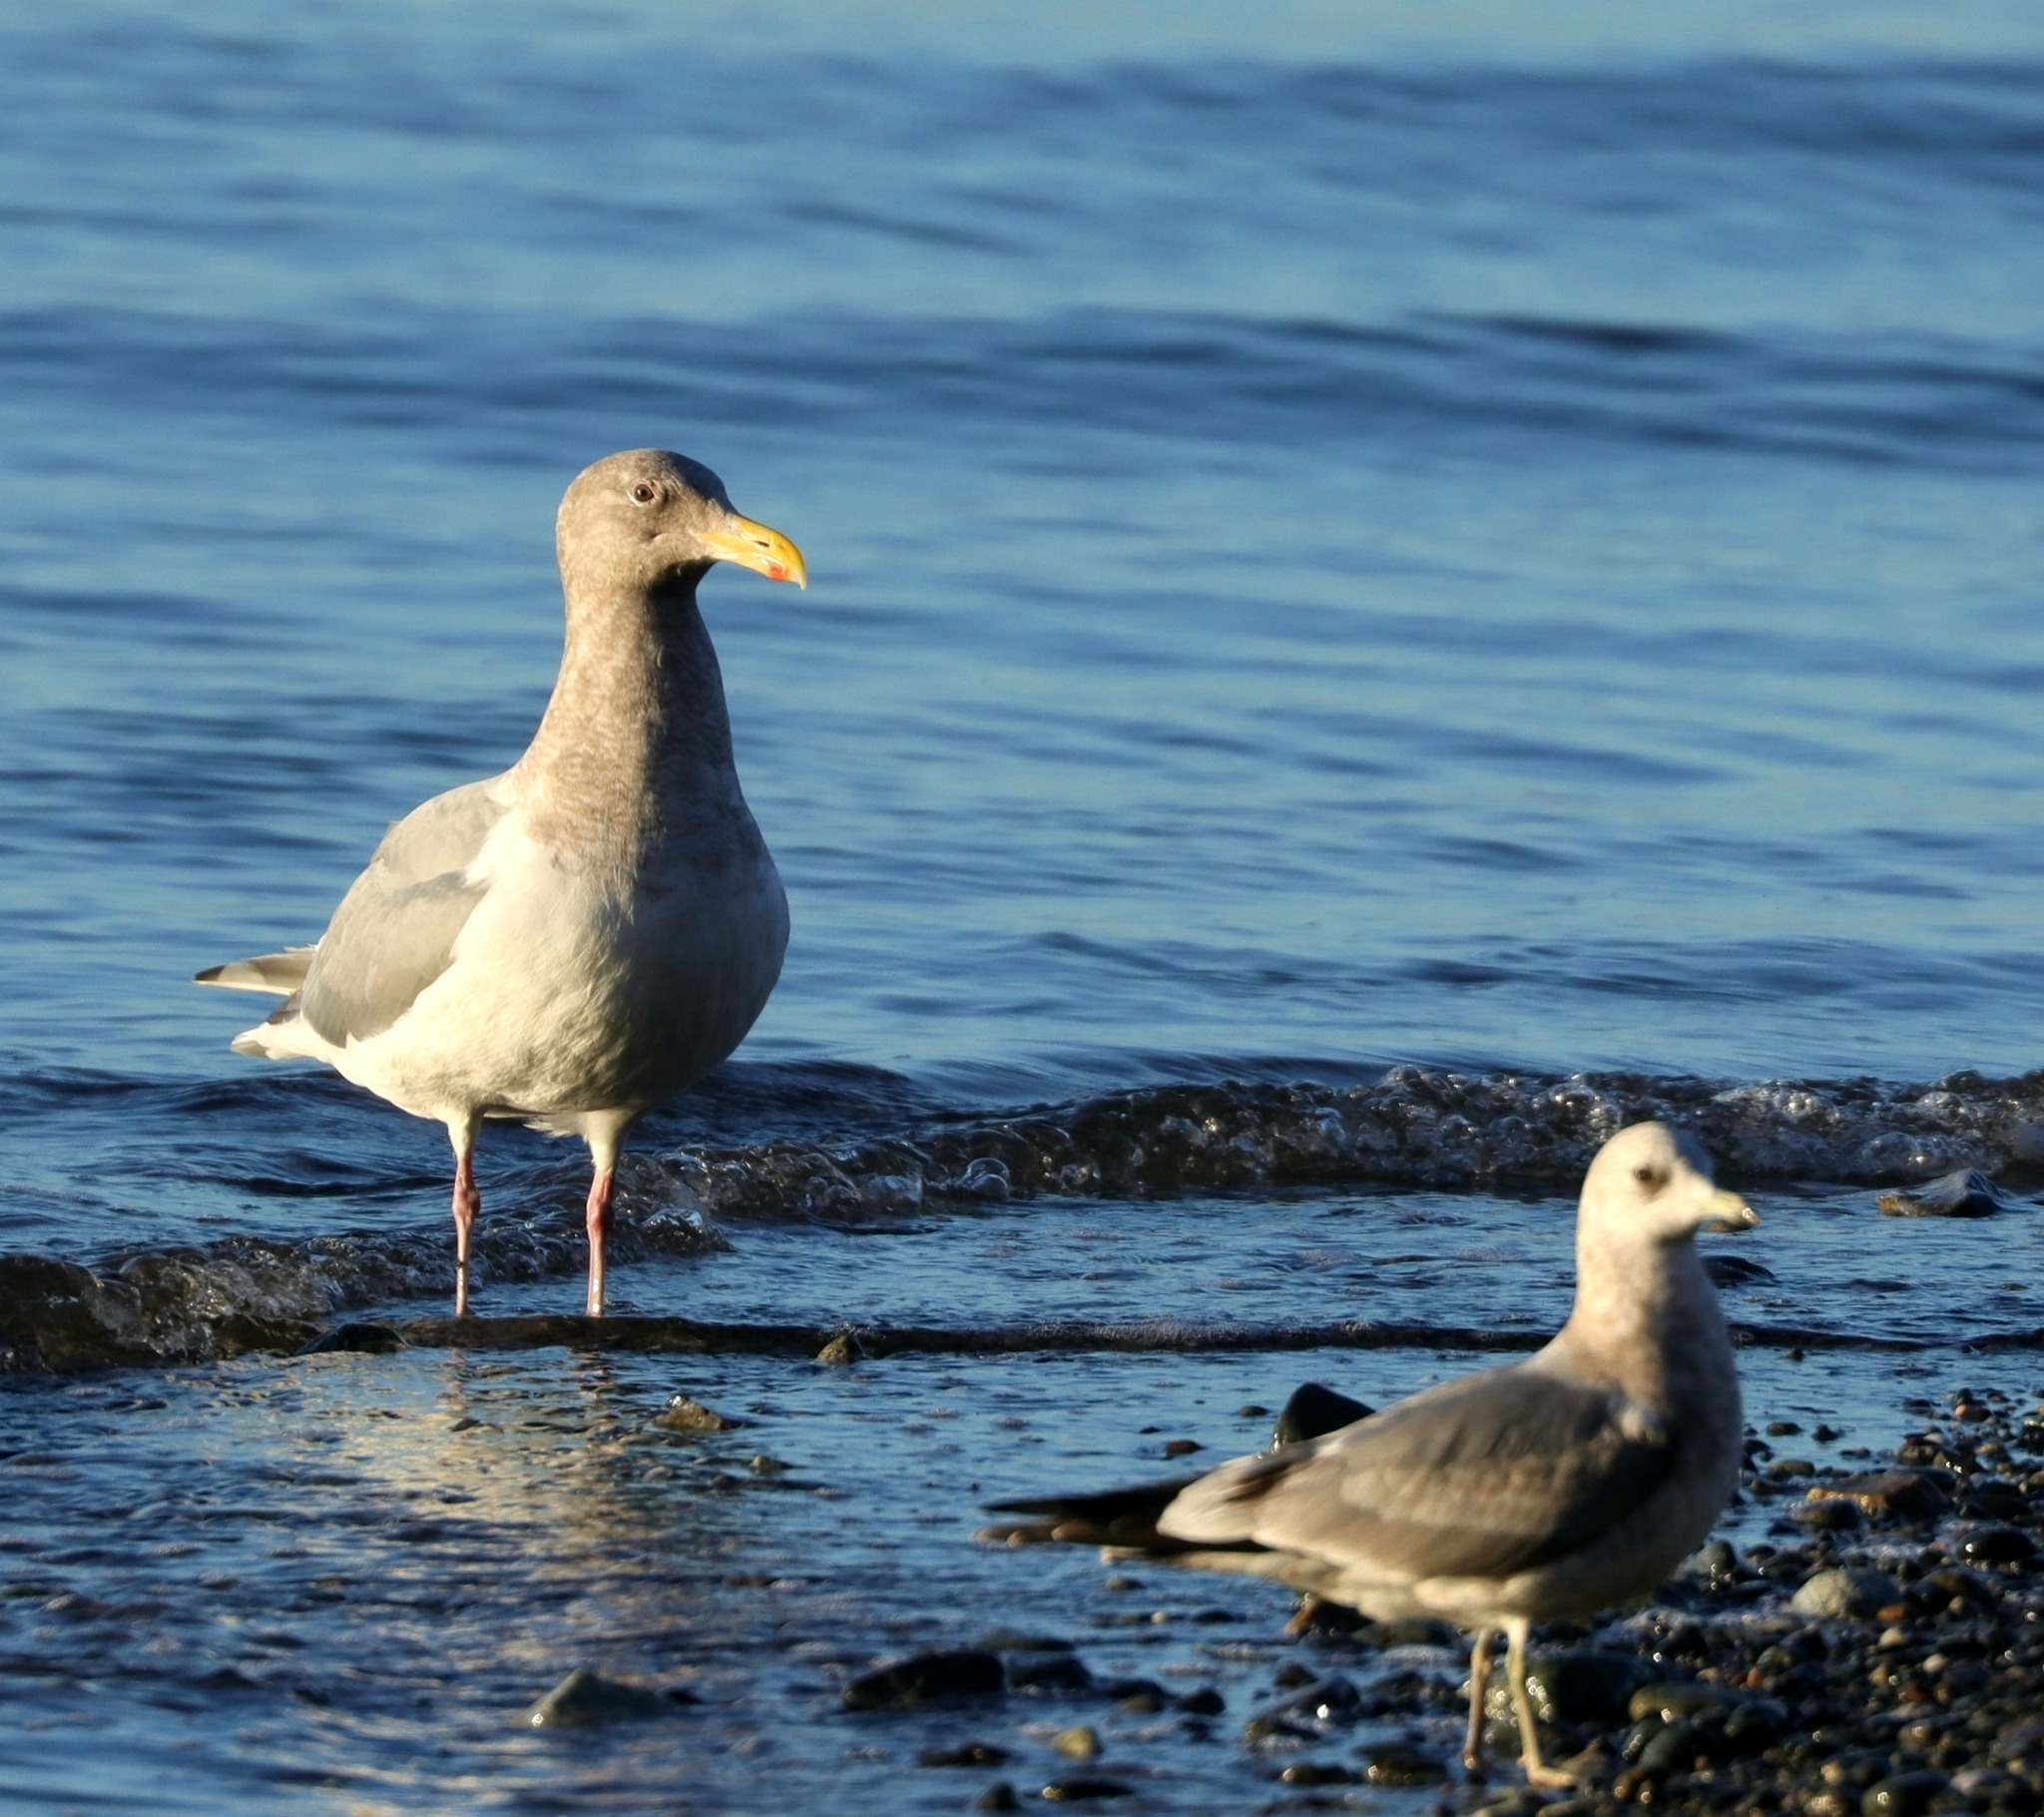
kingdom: Animalia
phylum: Chordata
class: Aves
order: Charadriiformes
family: Laridae
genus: Larus
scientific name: Larus
